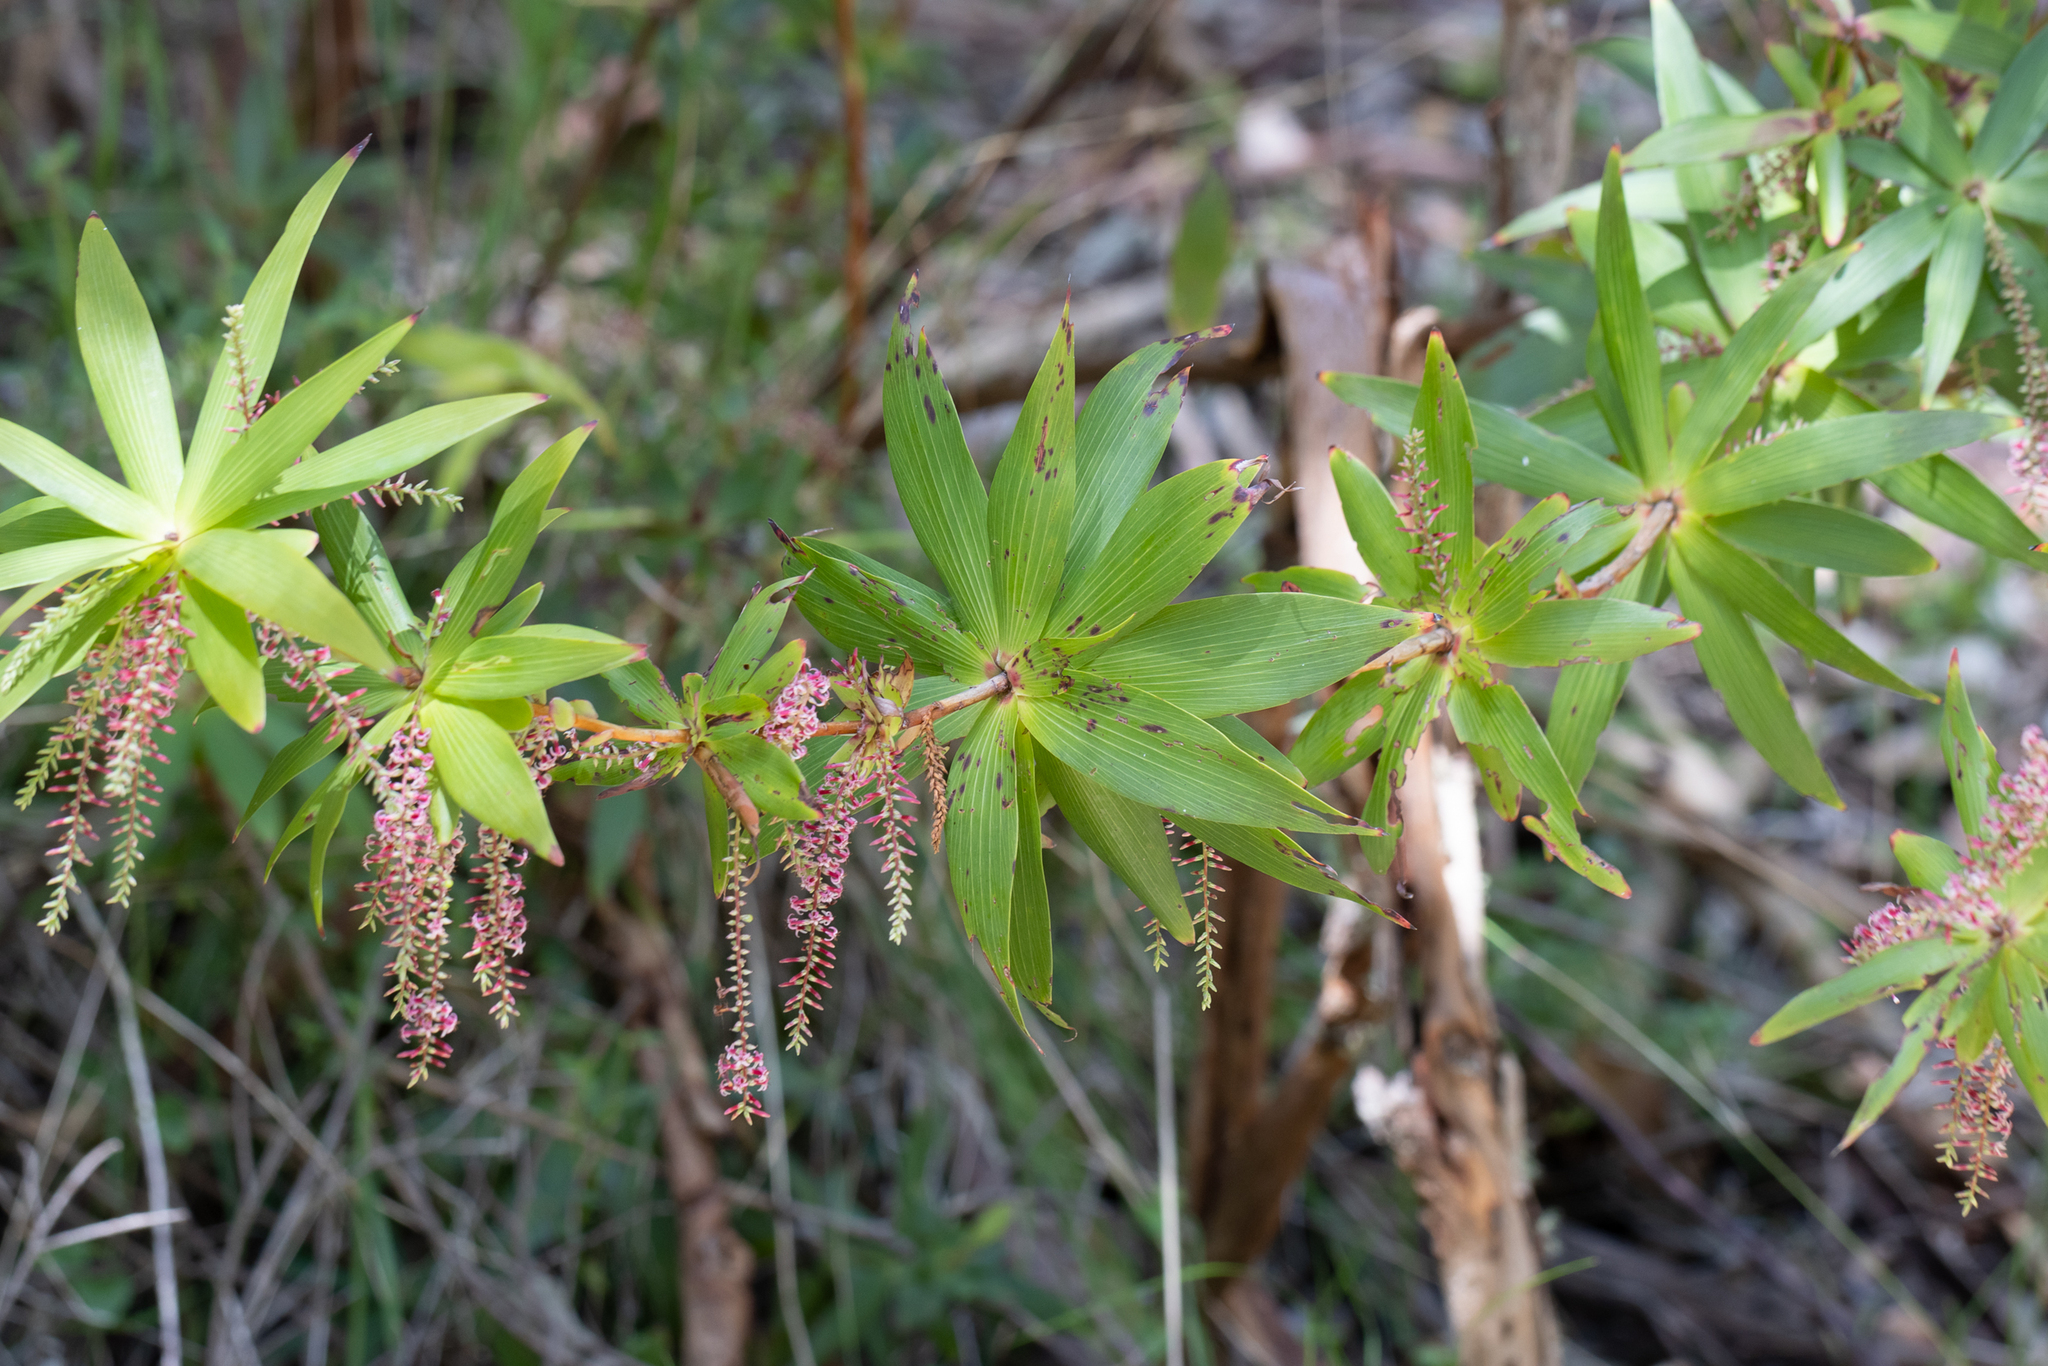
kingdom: Plantae
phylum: Tracheophyta
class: Magnoliopsida
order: Ericales
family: Ericaceae
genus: Leucopogon
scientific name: Leucopogon verticillatus
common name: Tasselshrub
